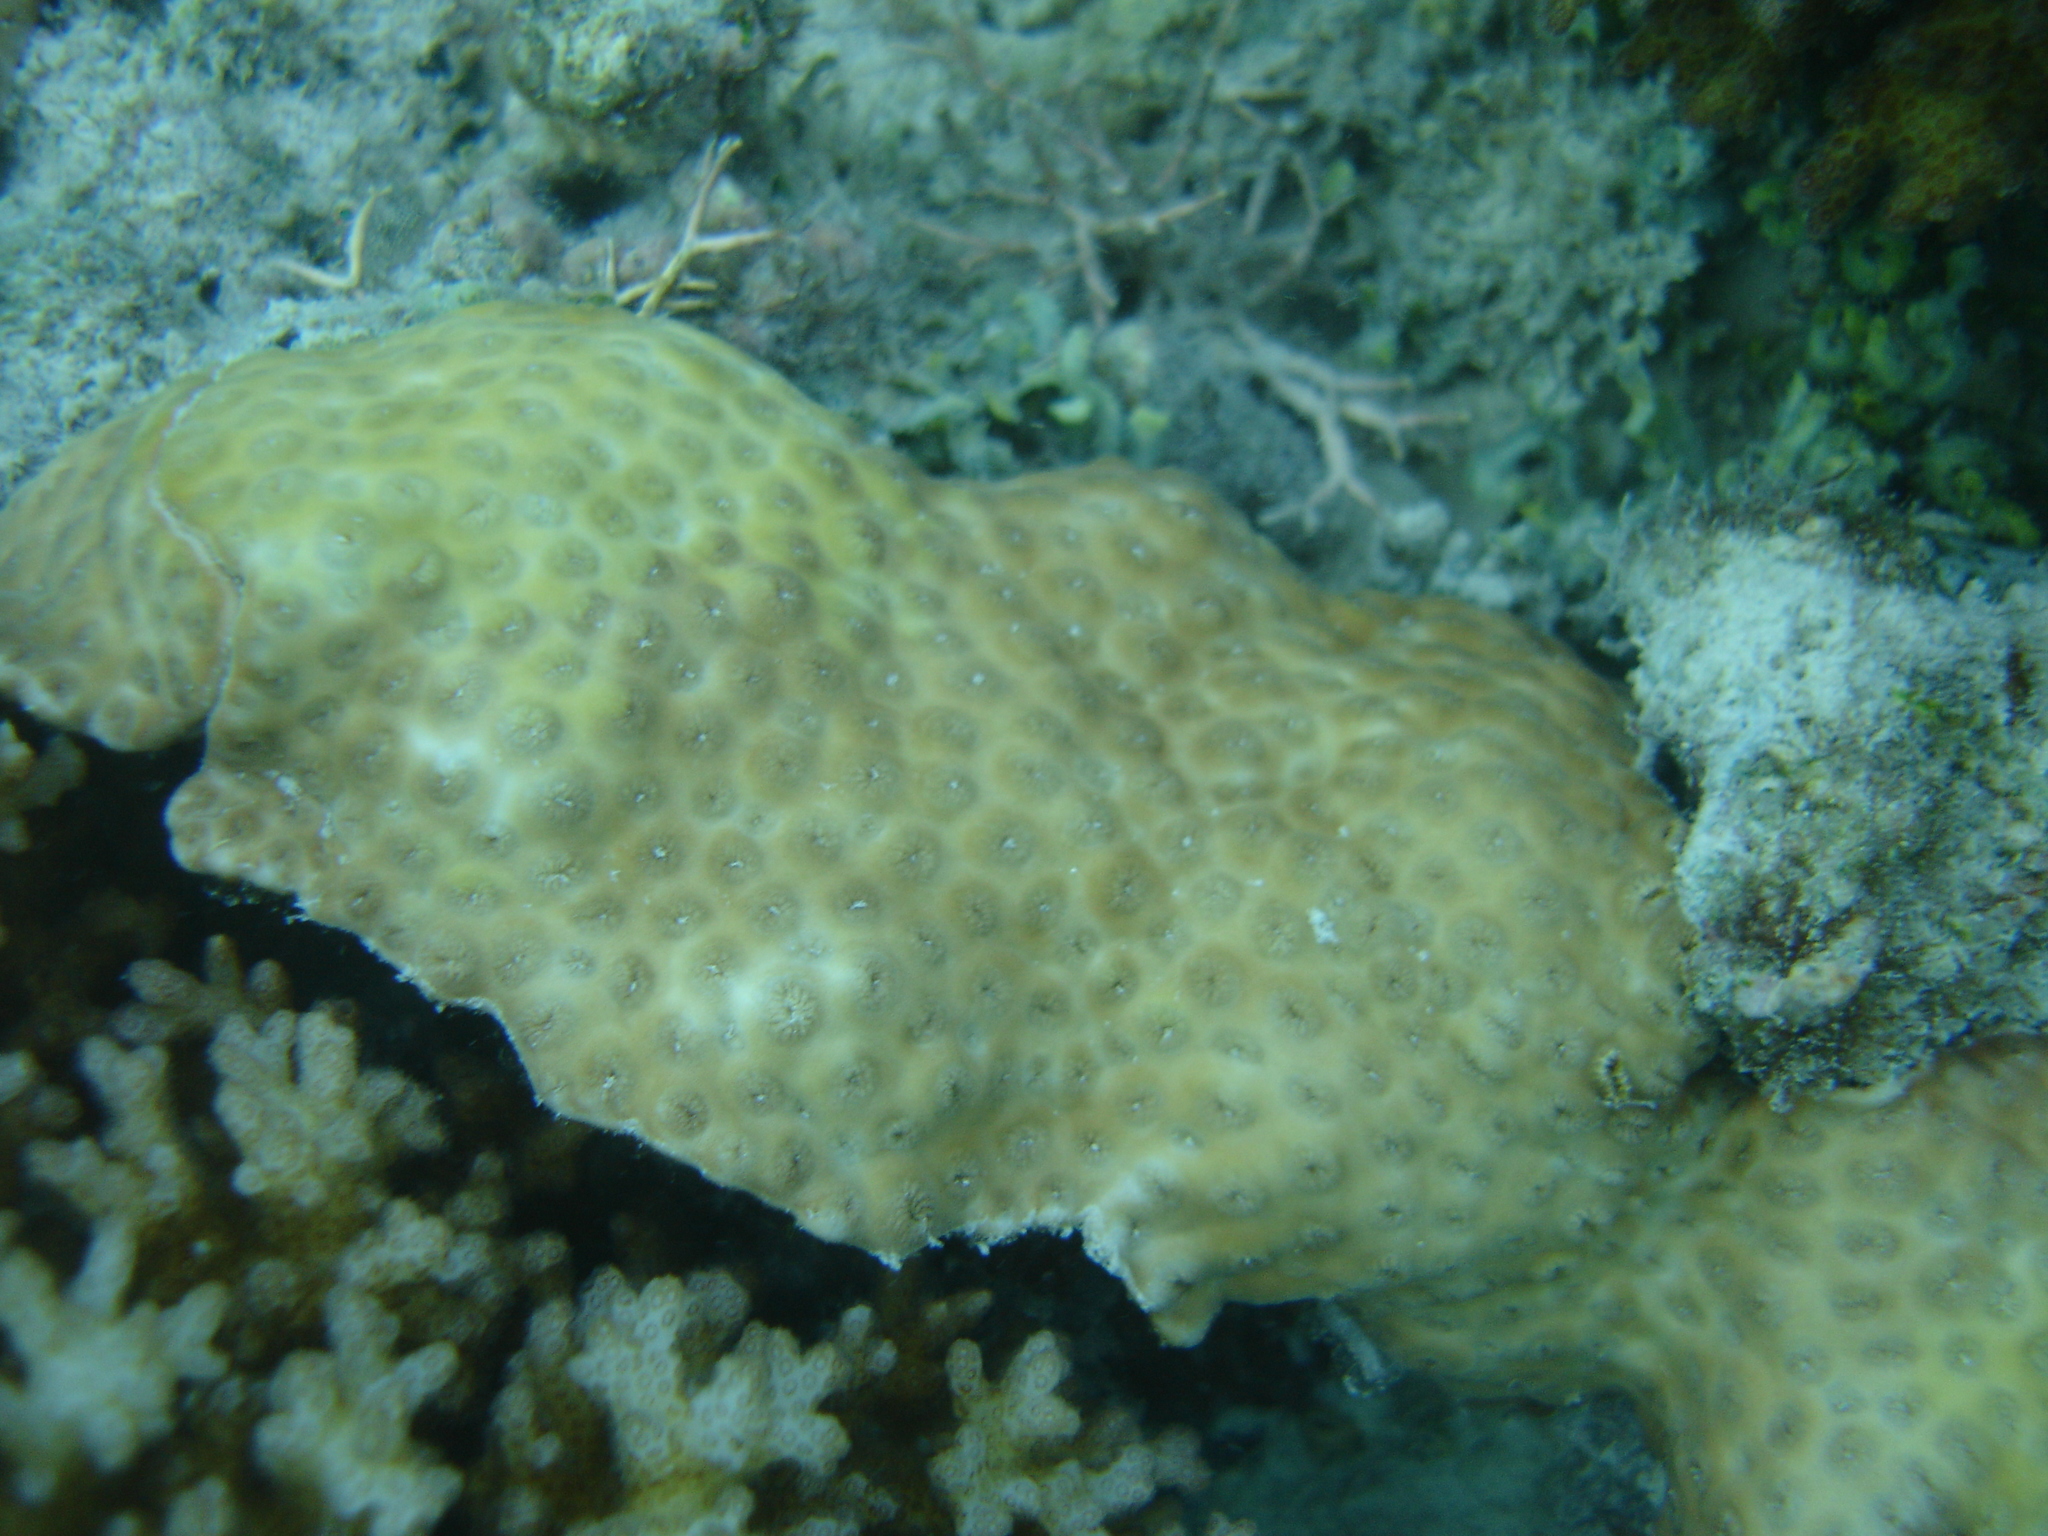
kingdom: Animalia
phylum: Cnidaria
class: Anthozoa
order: Zoantharia
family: Sphenopidae
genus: Palythoa
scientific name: Palythoa tuberculosa
